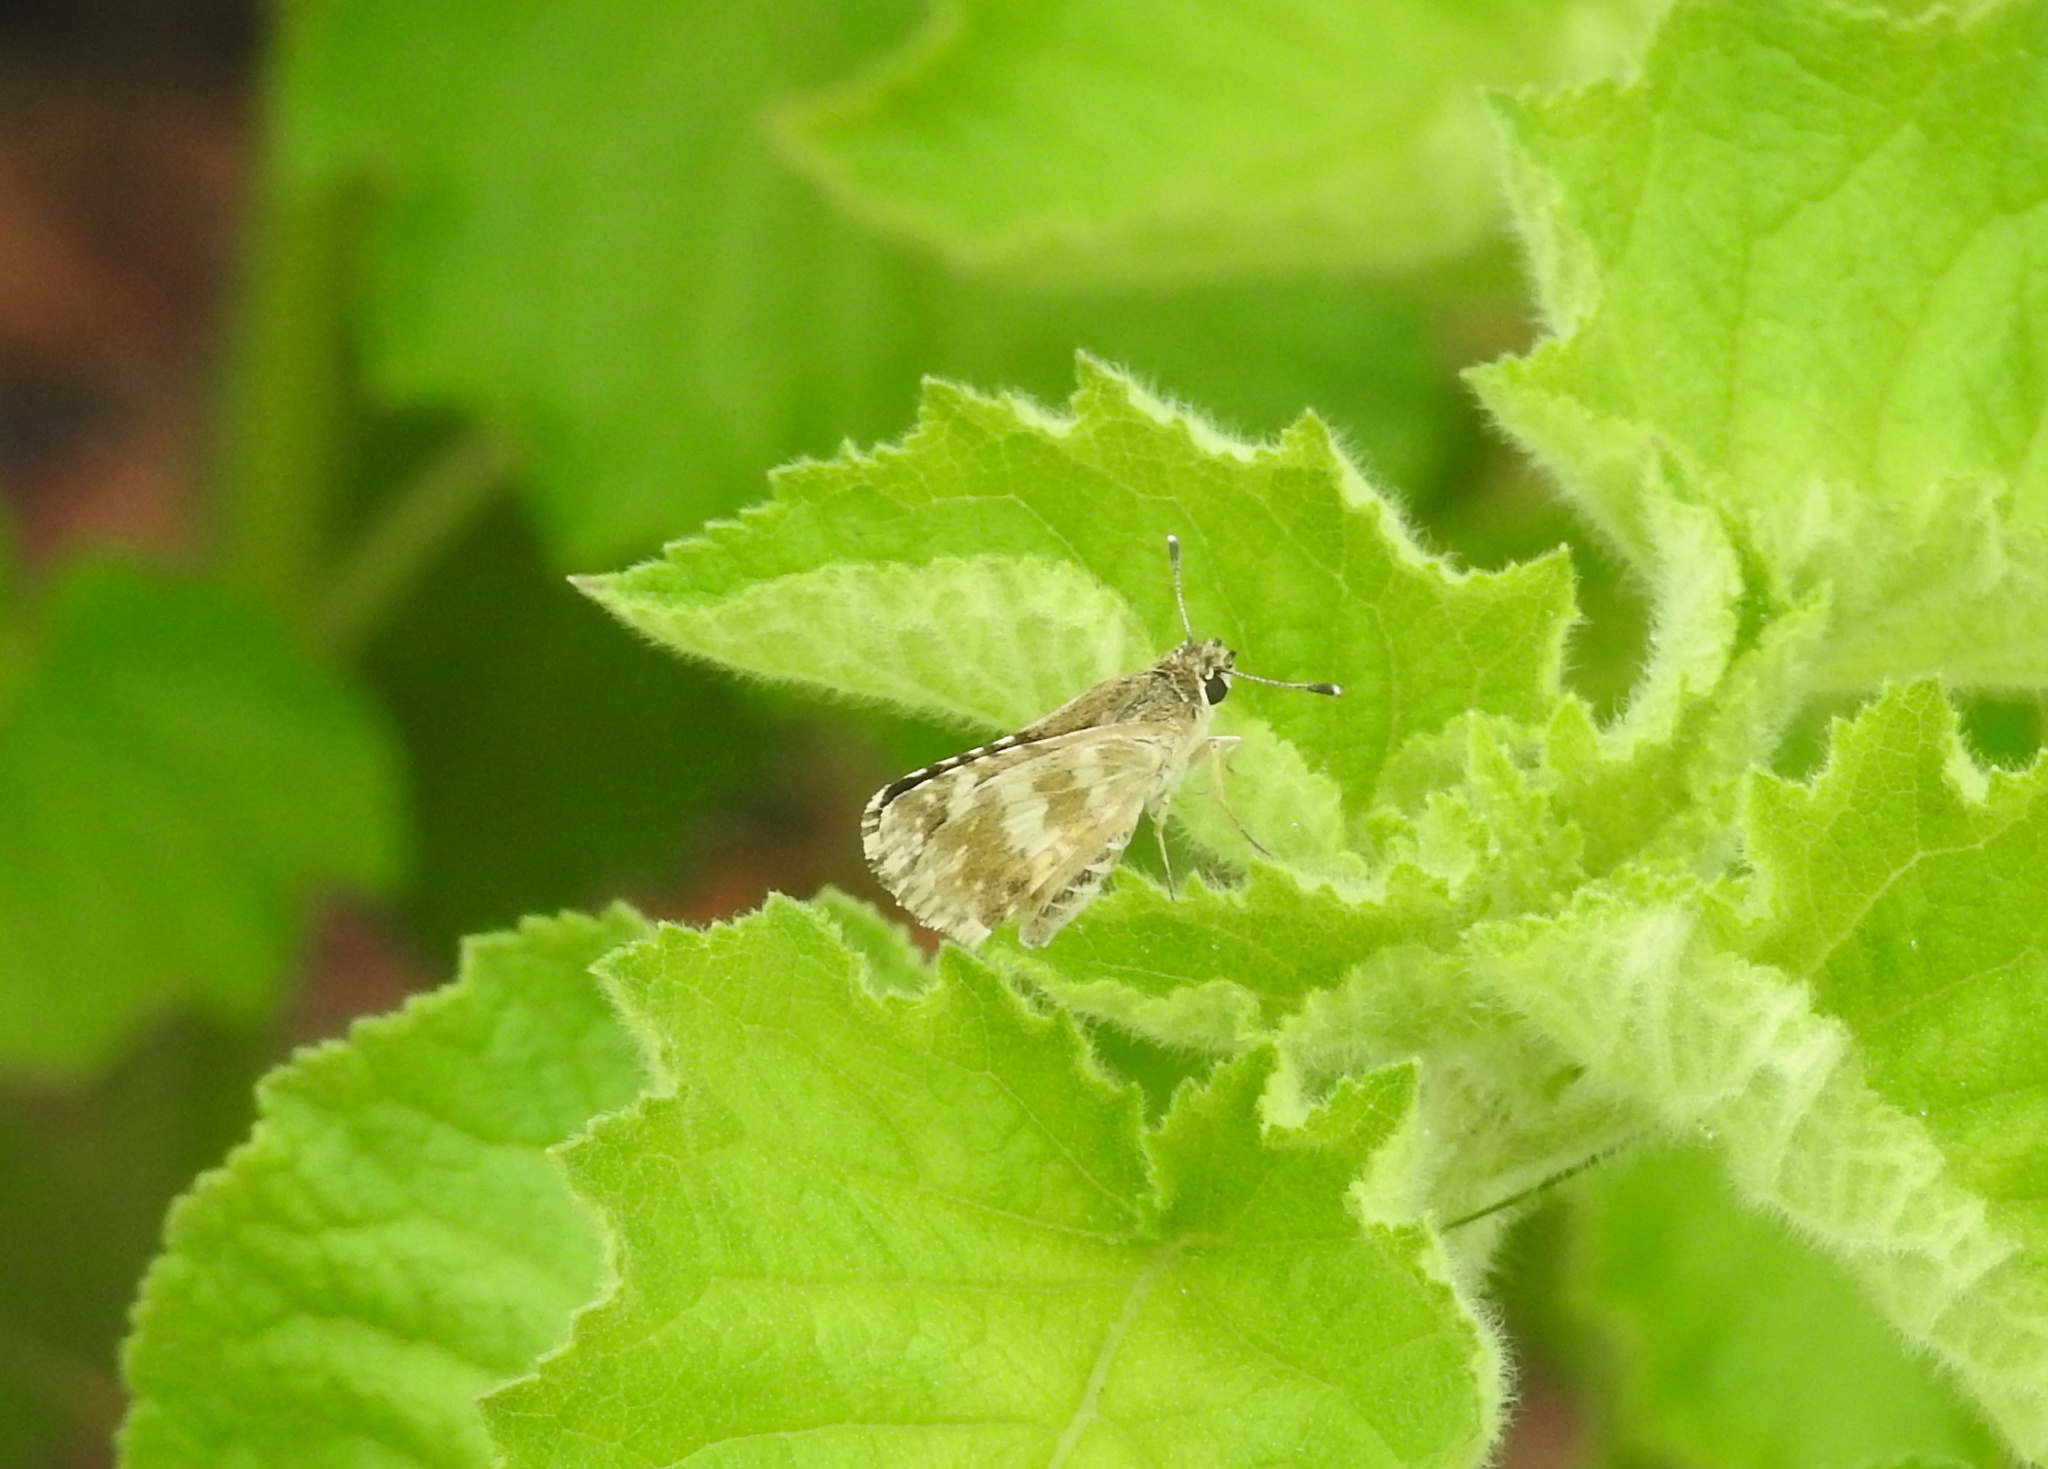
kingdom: Animalia
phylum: Arthropoda
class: Insecta
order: Lepidoptera
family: Hesperiidae
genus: Spialia
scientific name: Spialia galba
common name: Indian skipper
